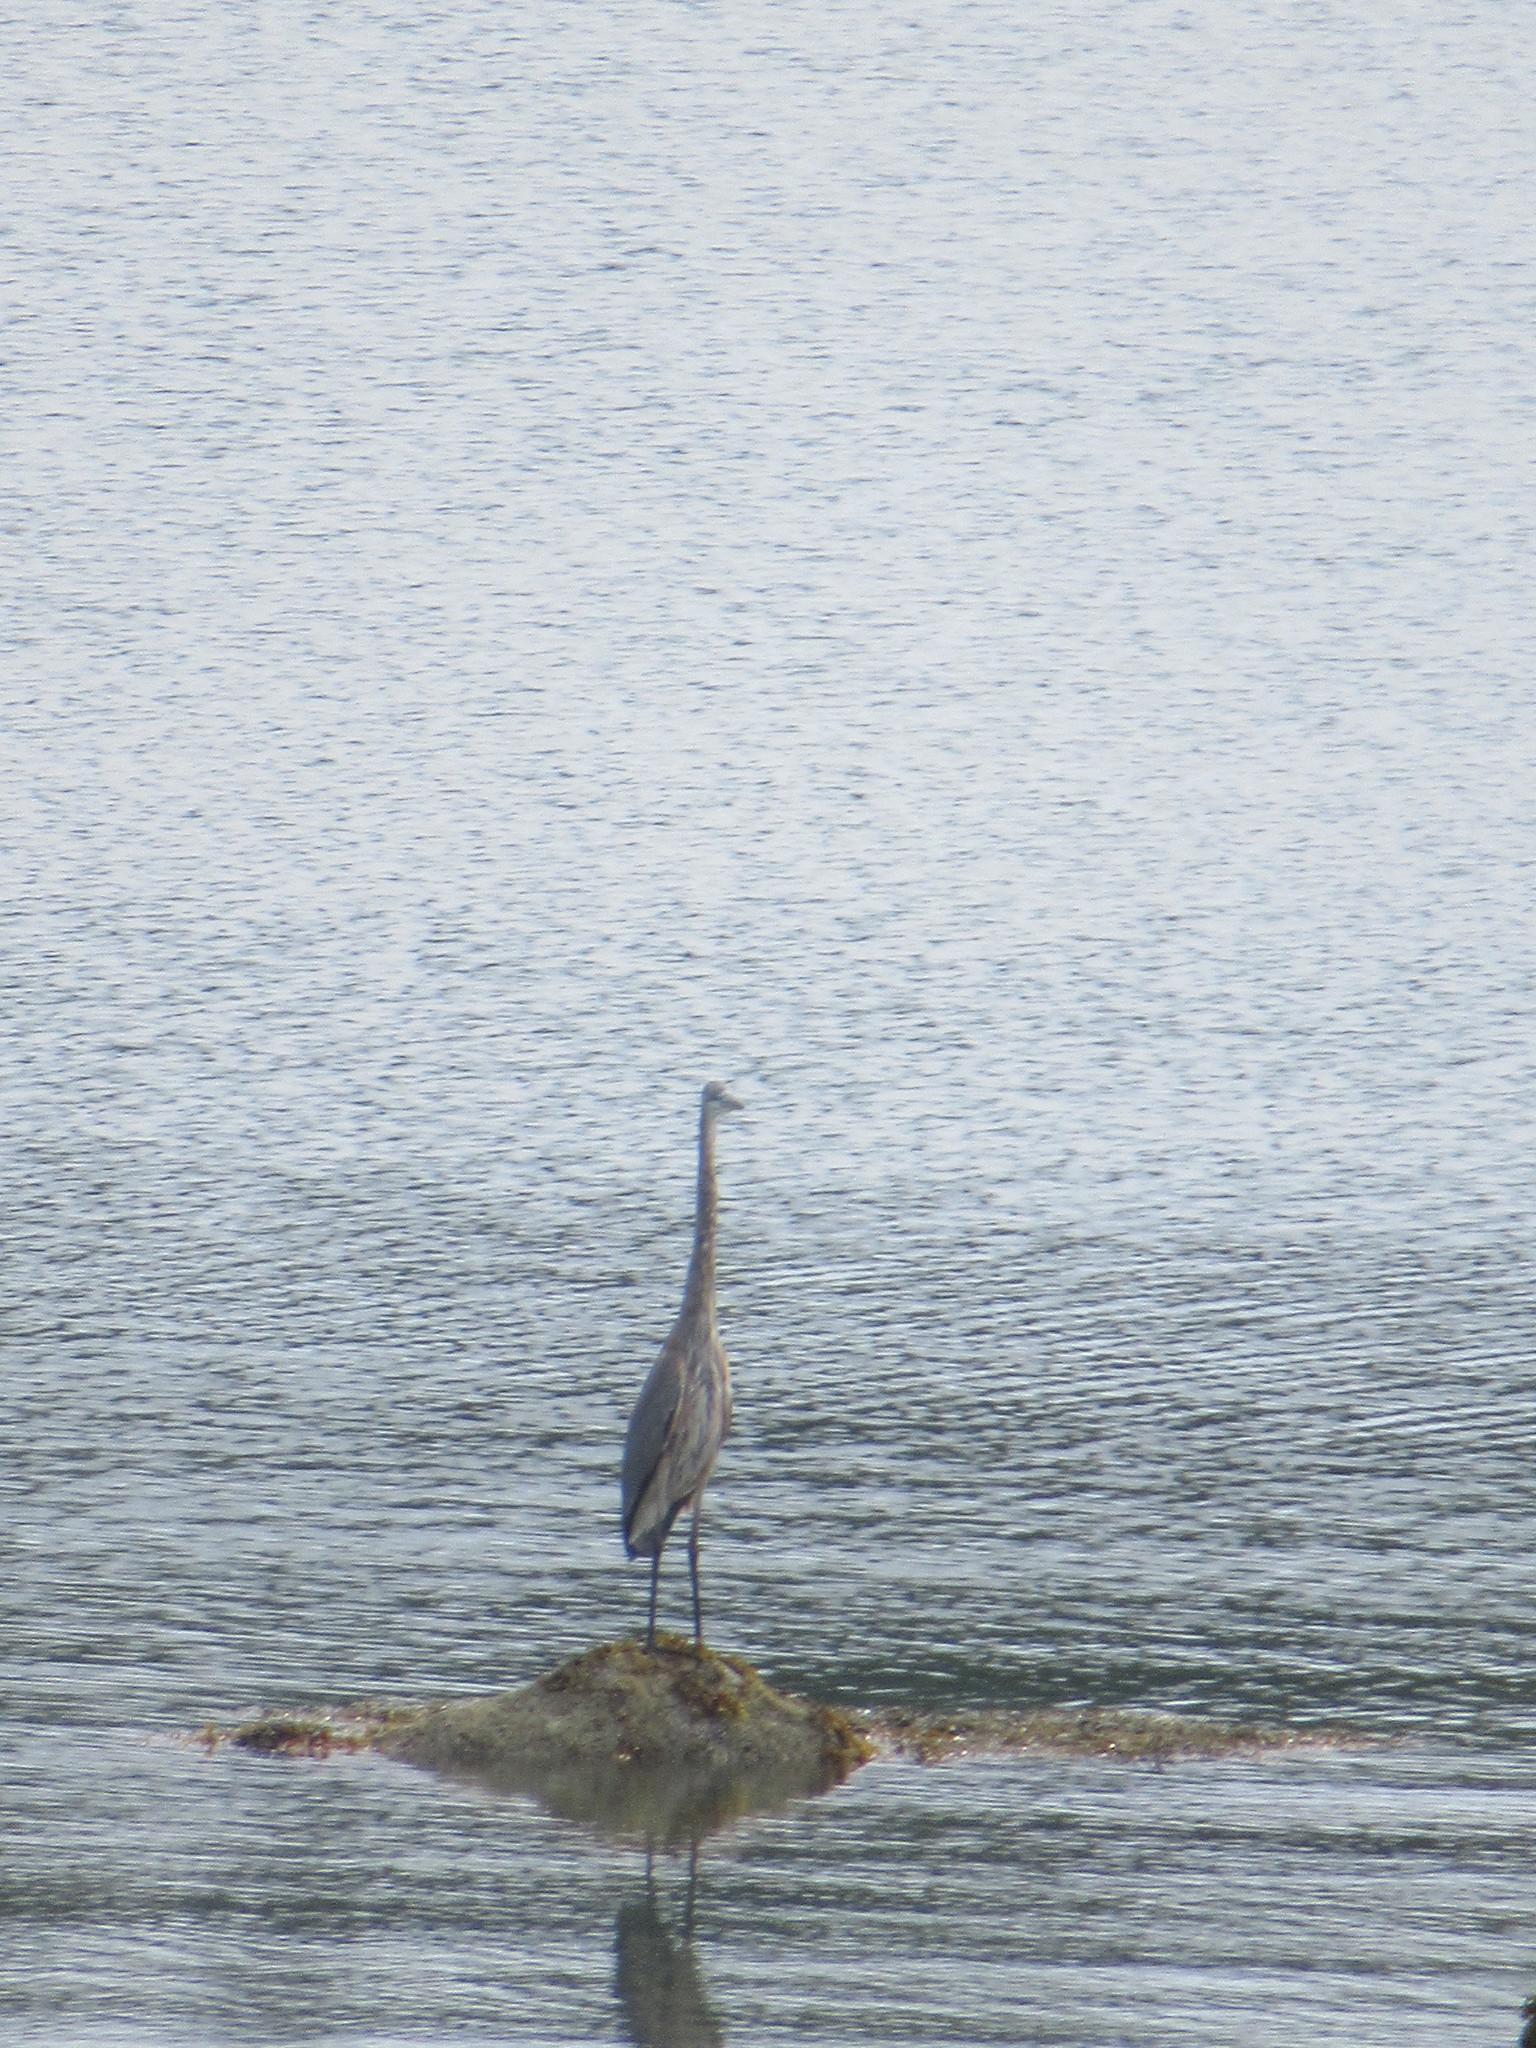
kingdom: Animalia
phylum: Chordata
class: Aves
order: Pelecaniformes
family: Ardeidae
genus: Ardea
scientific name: Ardea herodias
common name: Great blue heron
